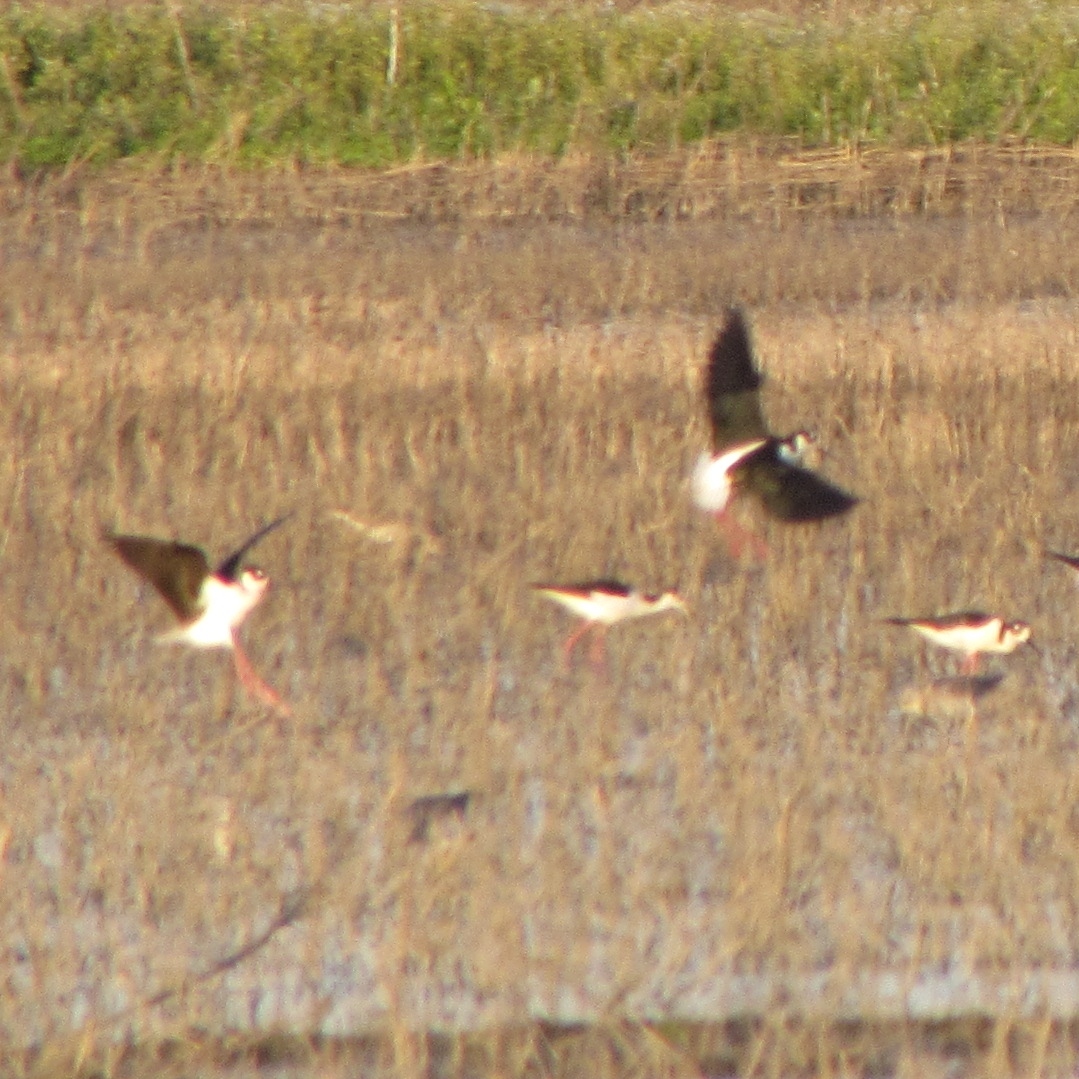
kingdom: Animalia
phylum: Chordata
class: Aves
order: Charadriiformes
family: Recurvirostridae
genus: Himantopus
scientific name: Himantopus mexicanus
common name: Black-necked stilt
